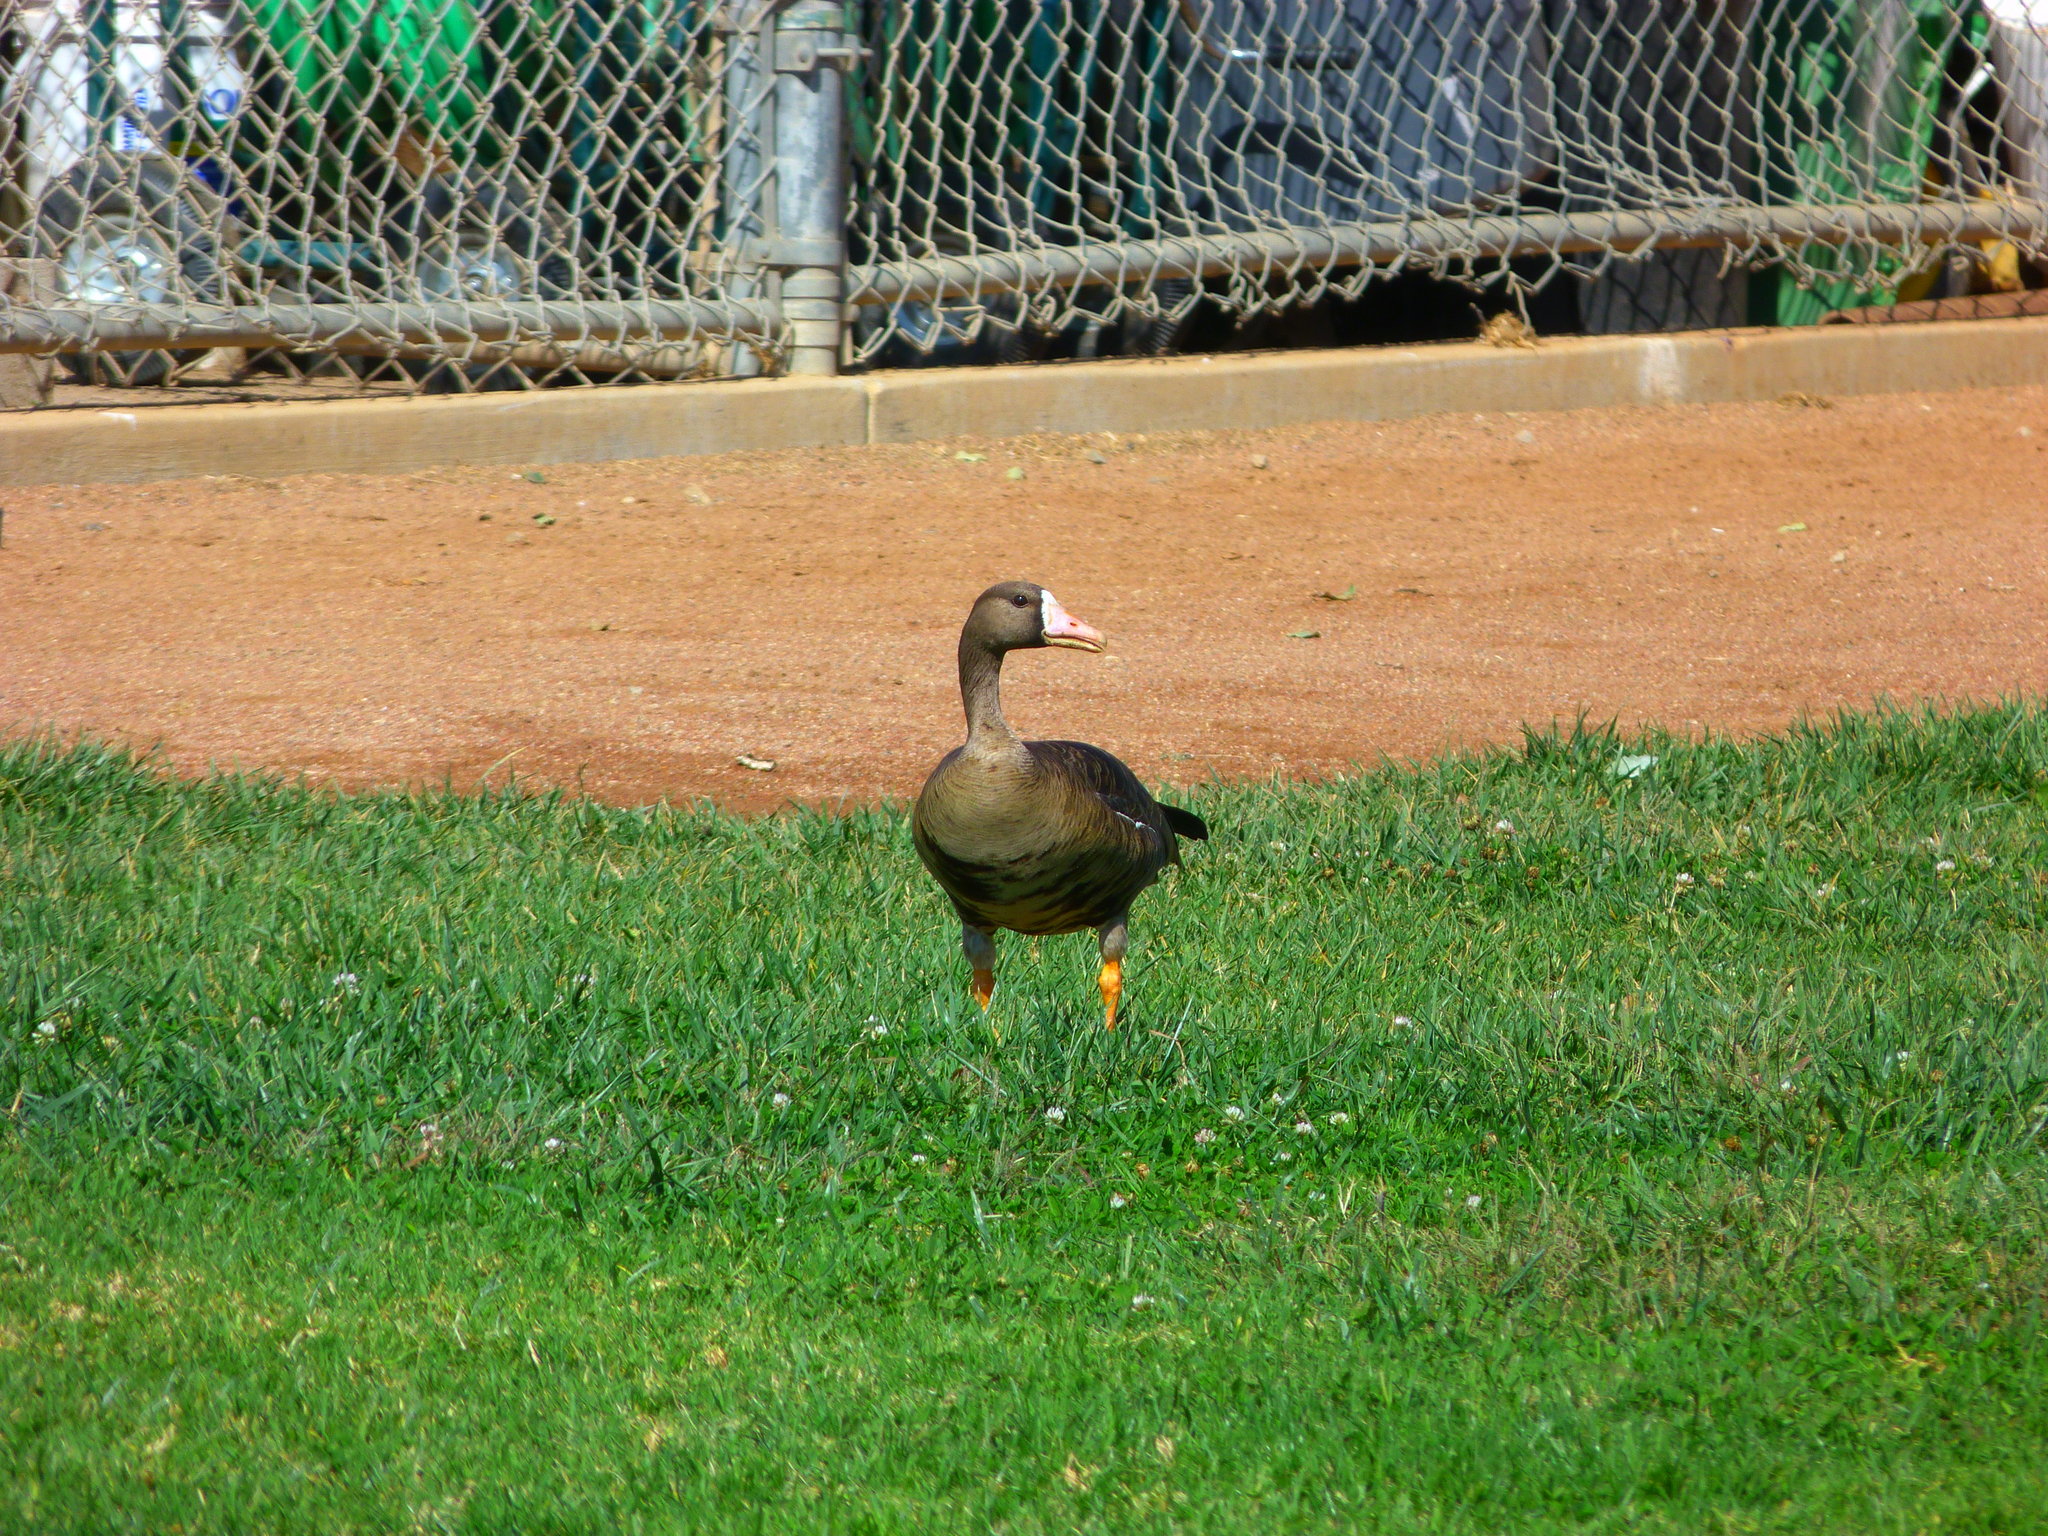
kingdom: Animalia
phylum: Chordata
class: Aves
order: Anseriformes
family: Anatidae
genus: Anser
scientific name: Anser albifrons
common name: Greater white-fronted goose
